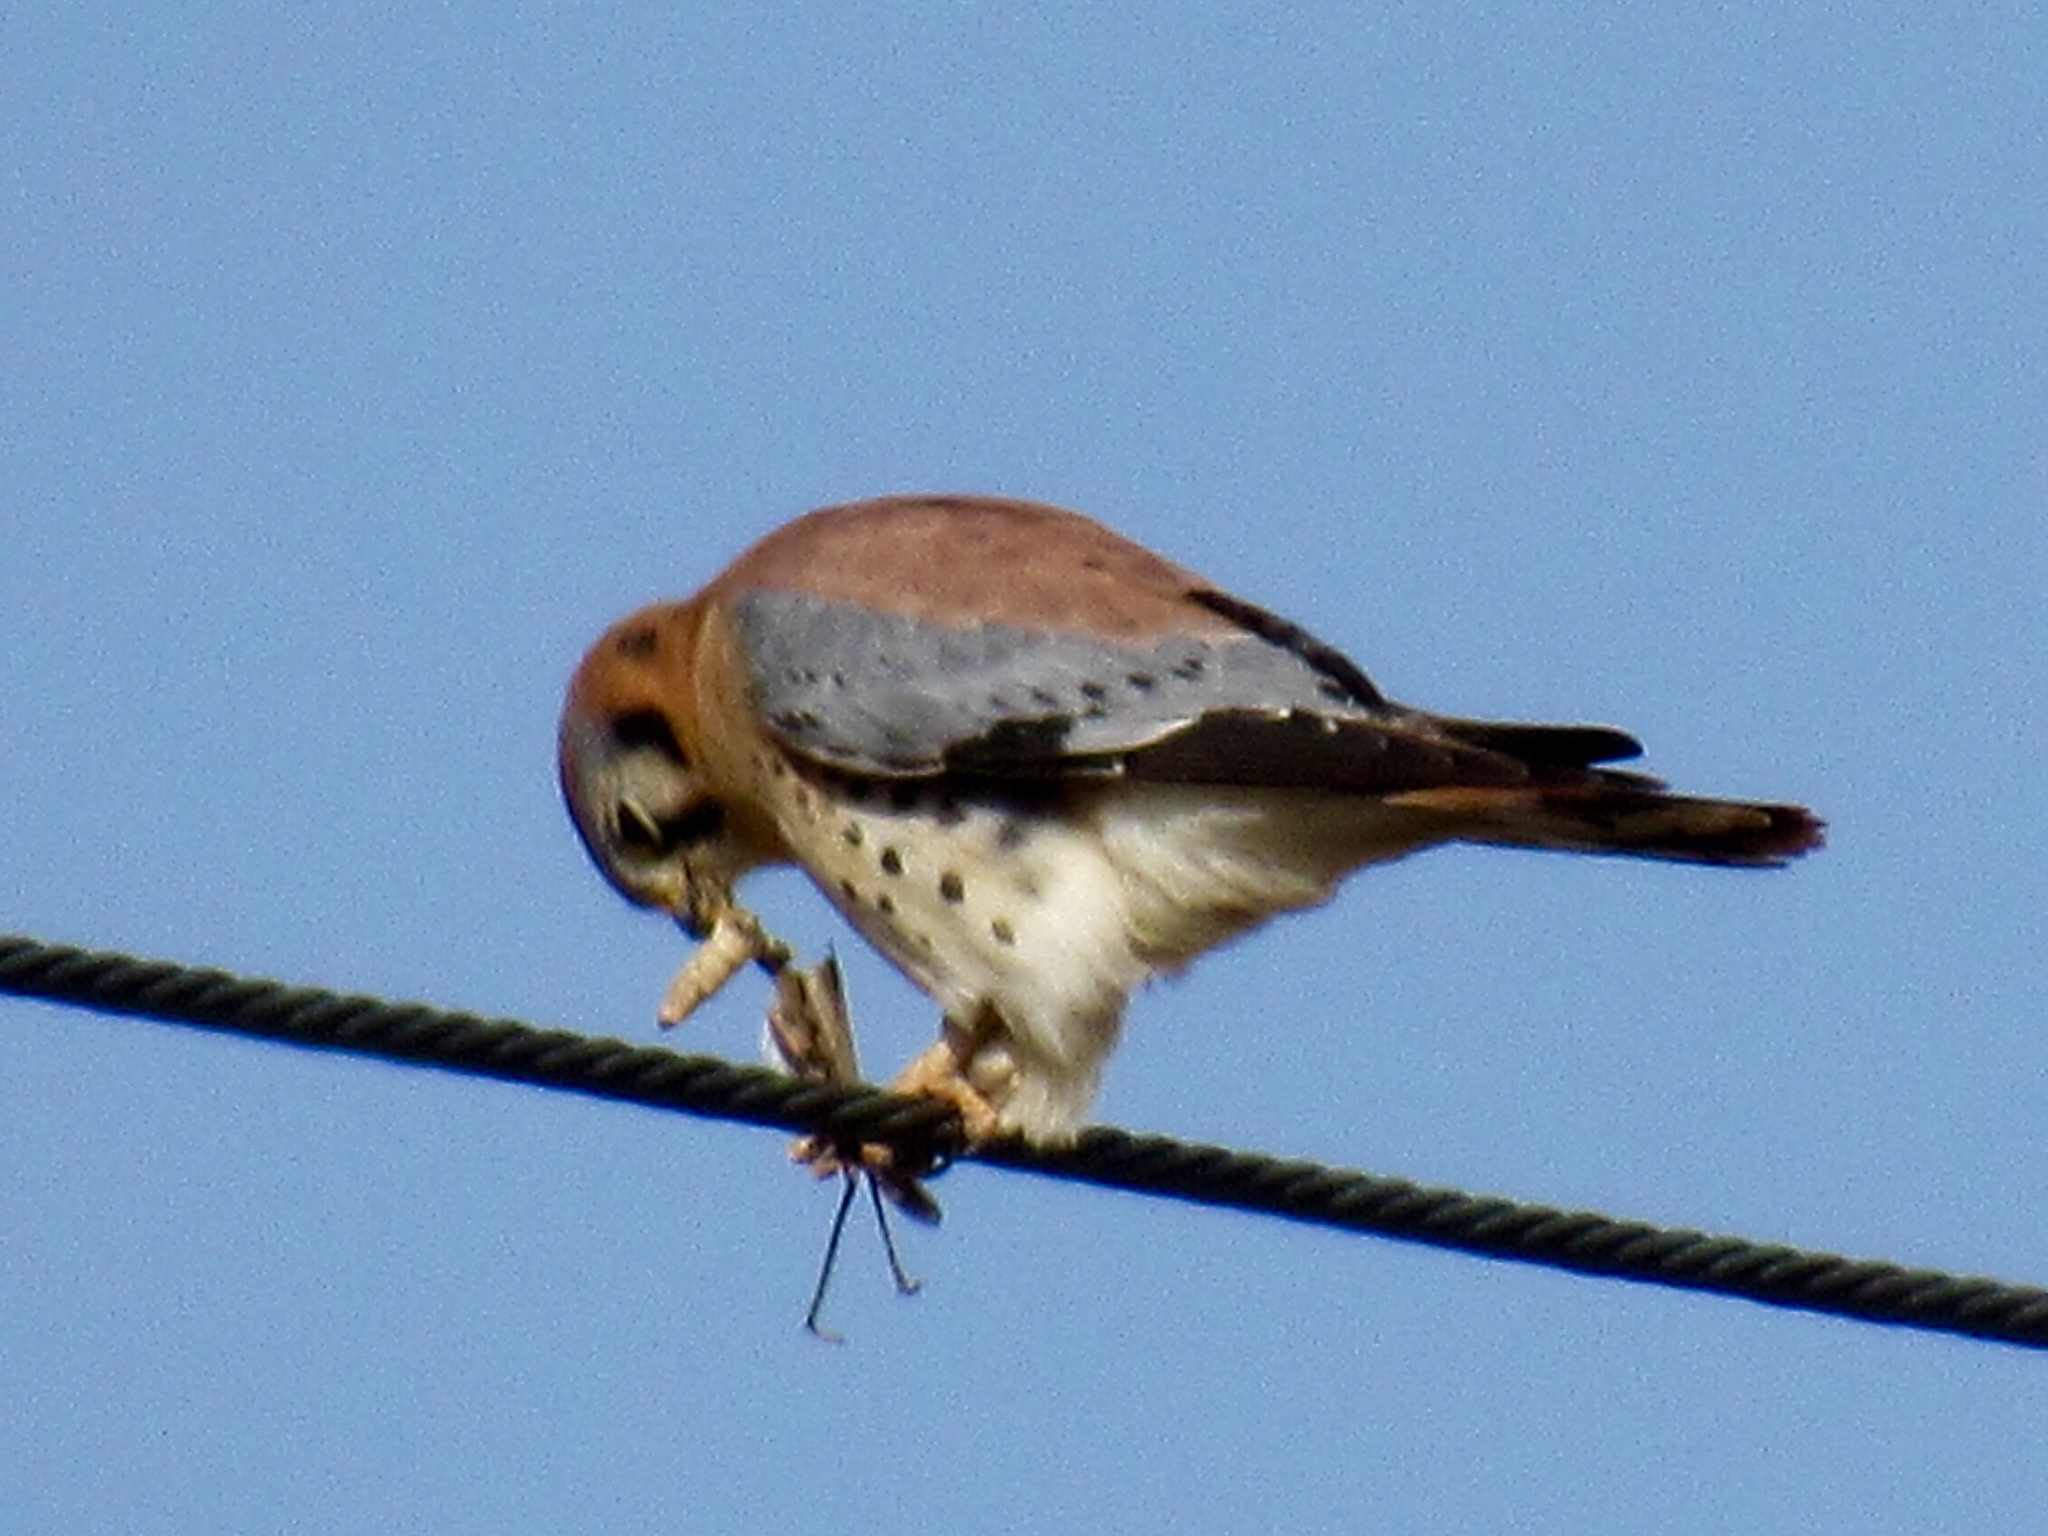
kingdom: Animalia
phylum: Chordata
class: Aves
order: Falconiformes
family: Falconidae
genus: Falco
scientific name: Falco sparverius
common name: American kestrel
